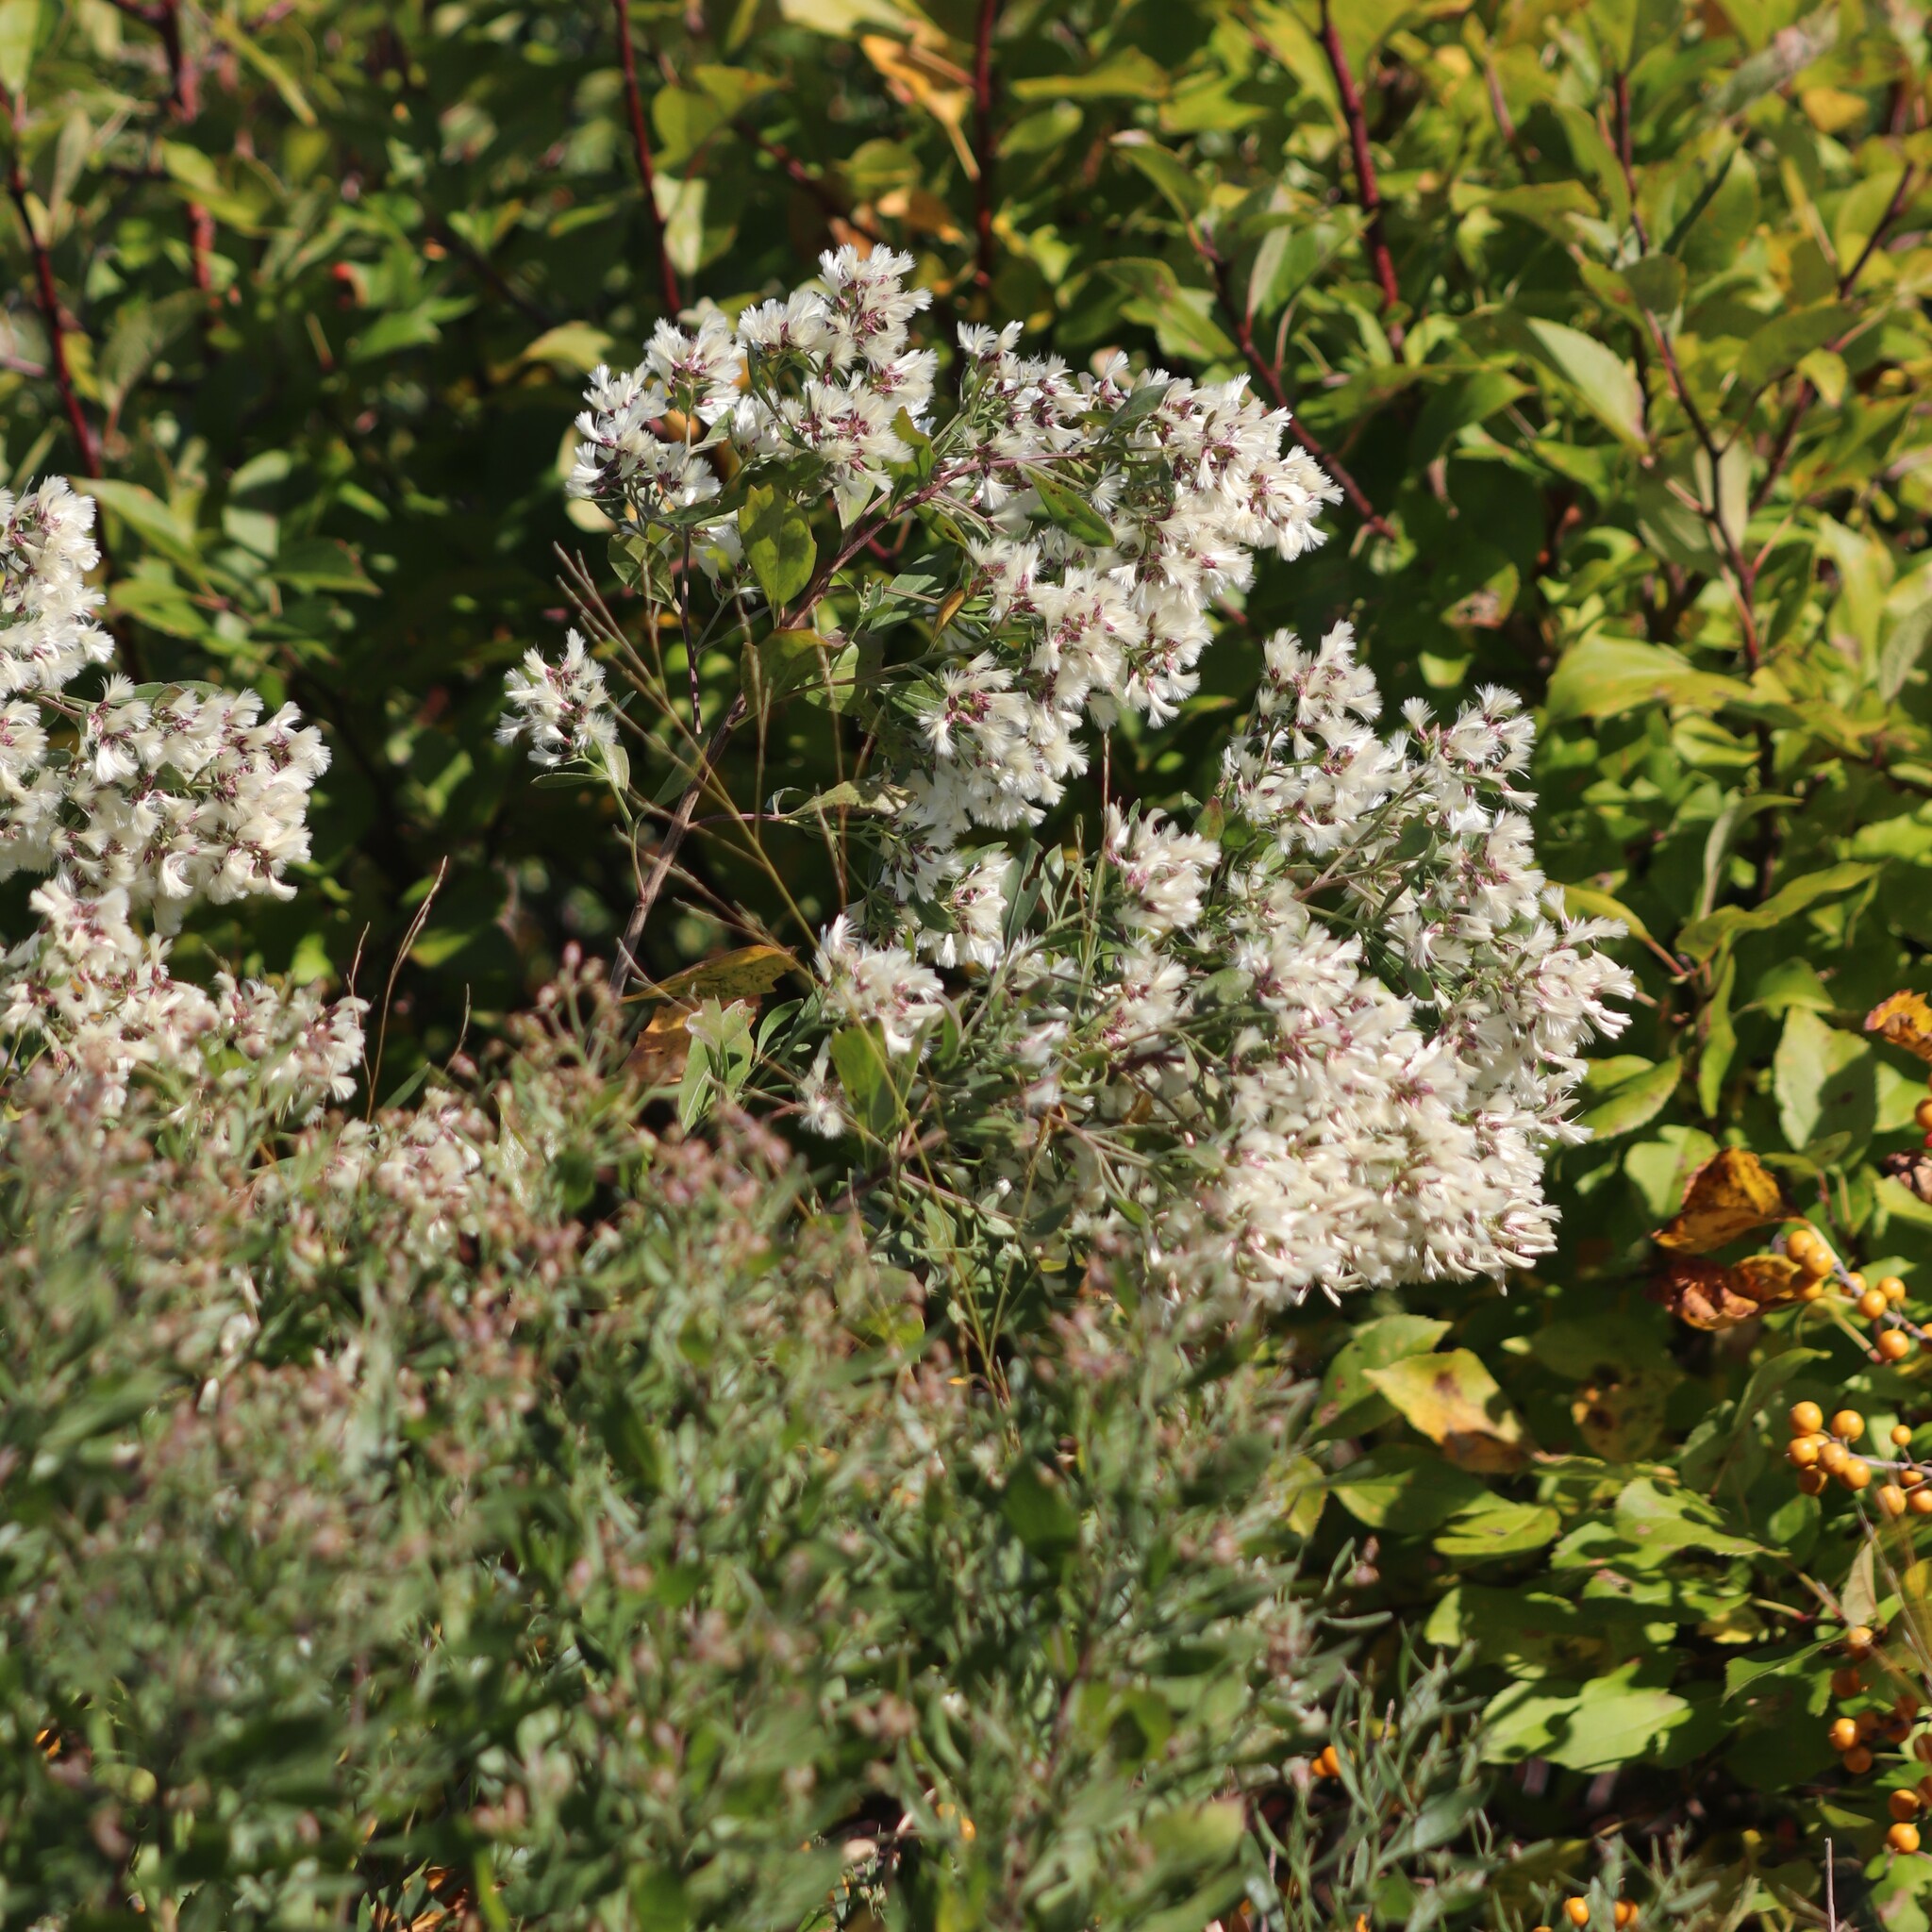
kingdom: Plantae
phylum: Tracheophyta
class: Magnoliopsida
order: Asterales
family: Asteraceae
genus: Baccharis
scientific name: Baccharis halimifolia
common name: Eastern baccharis
